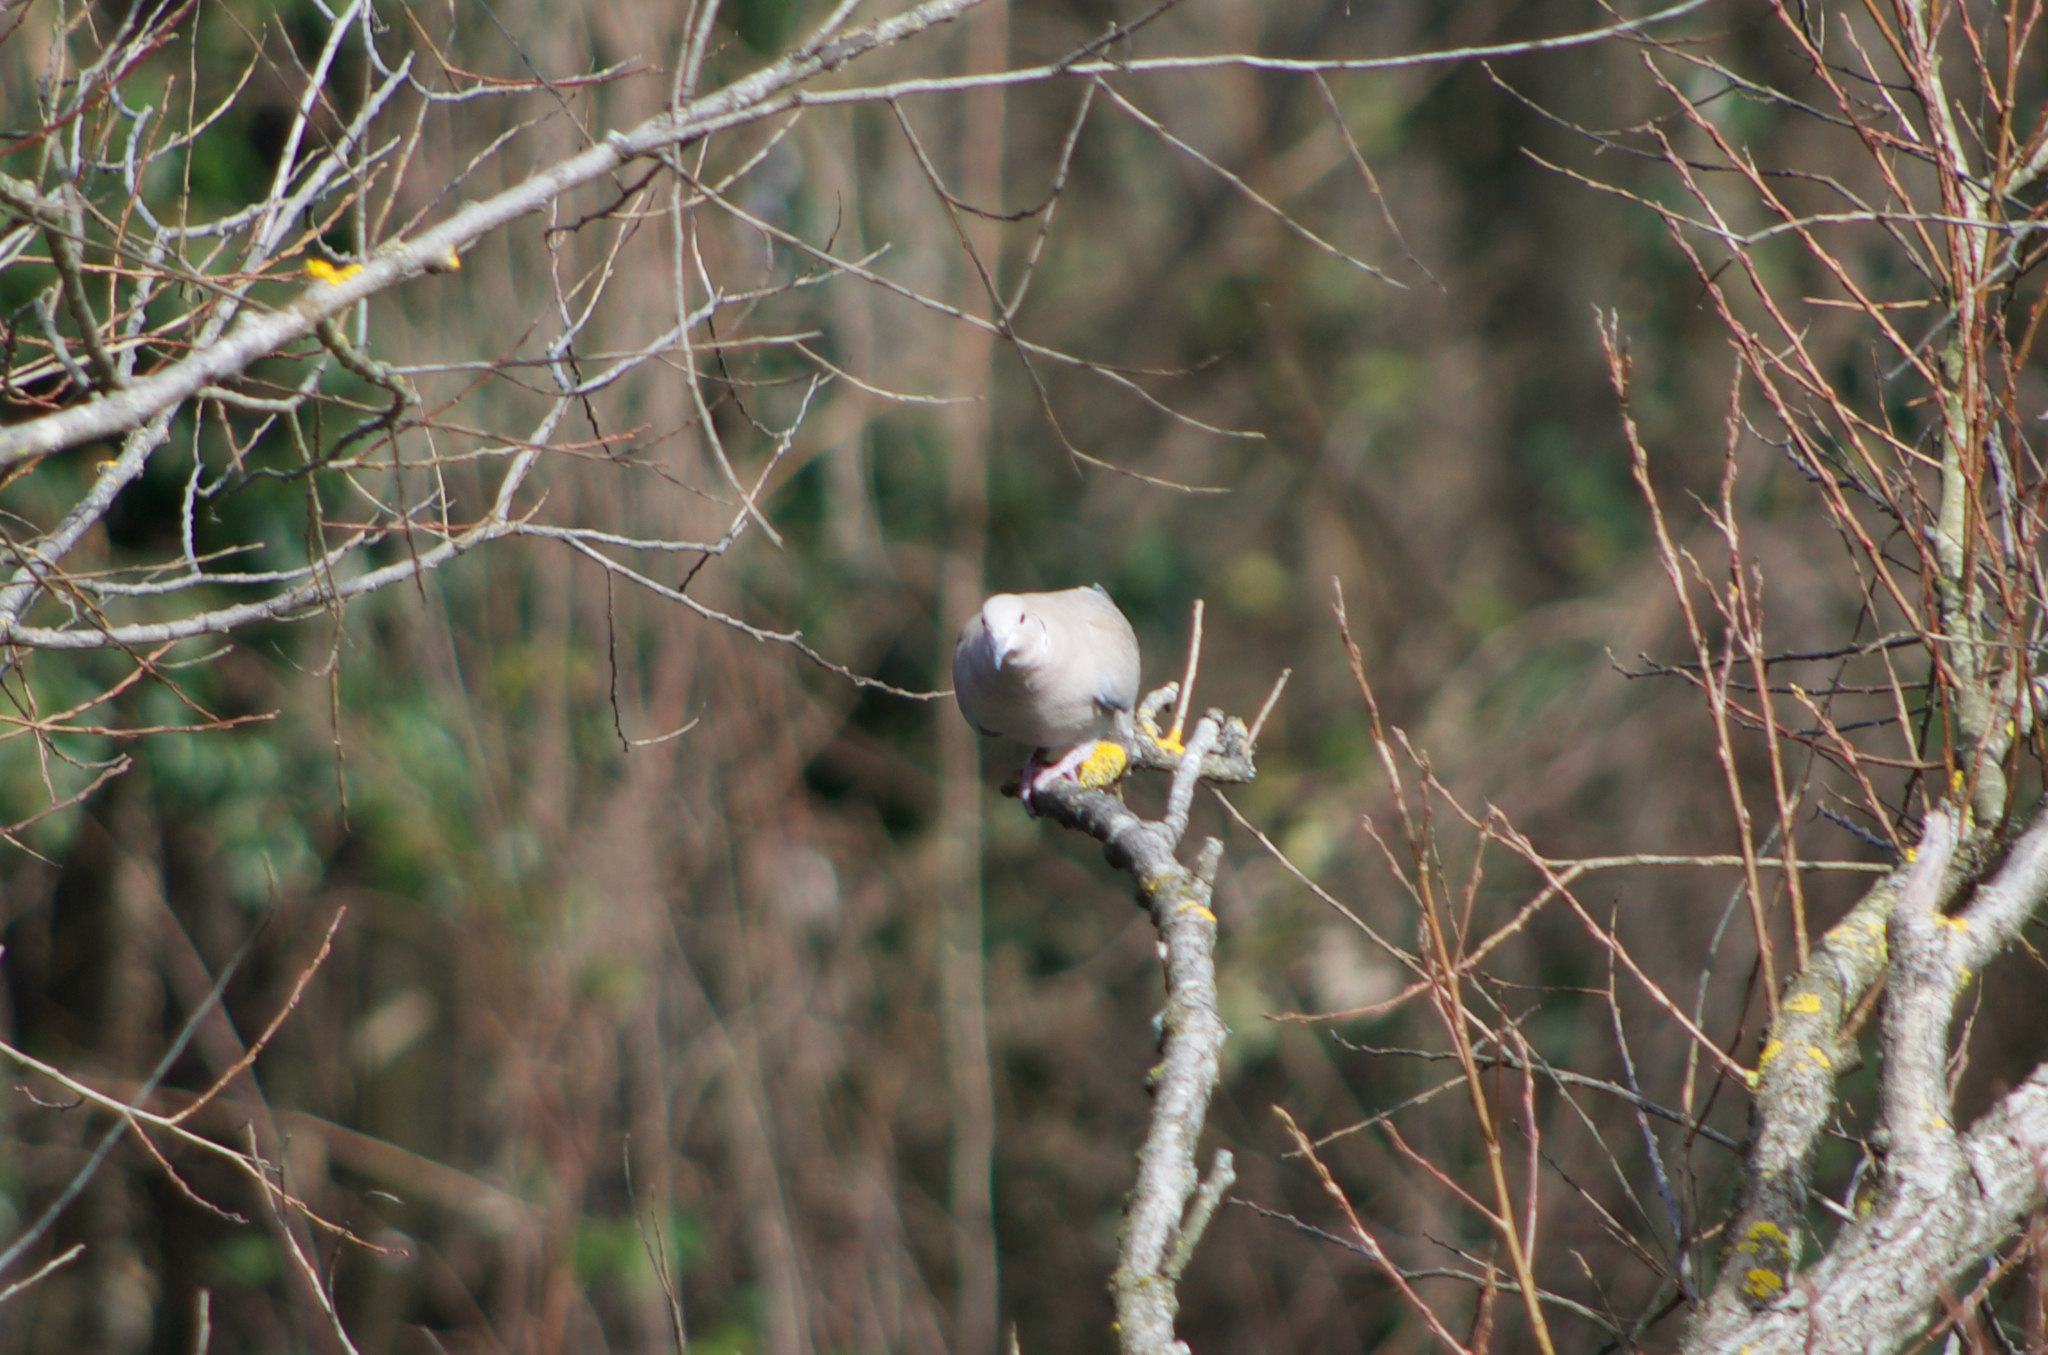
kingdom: Animalia
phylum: Chordata
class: Aves
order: Columbiformes
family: Columbidae
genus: Streptopelia
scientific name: Streptopelia decaocto
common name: Eurasian collared dove
